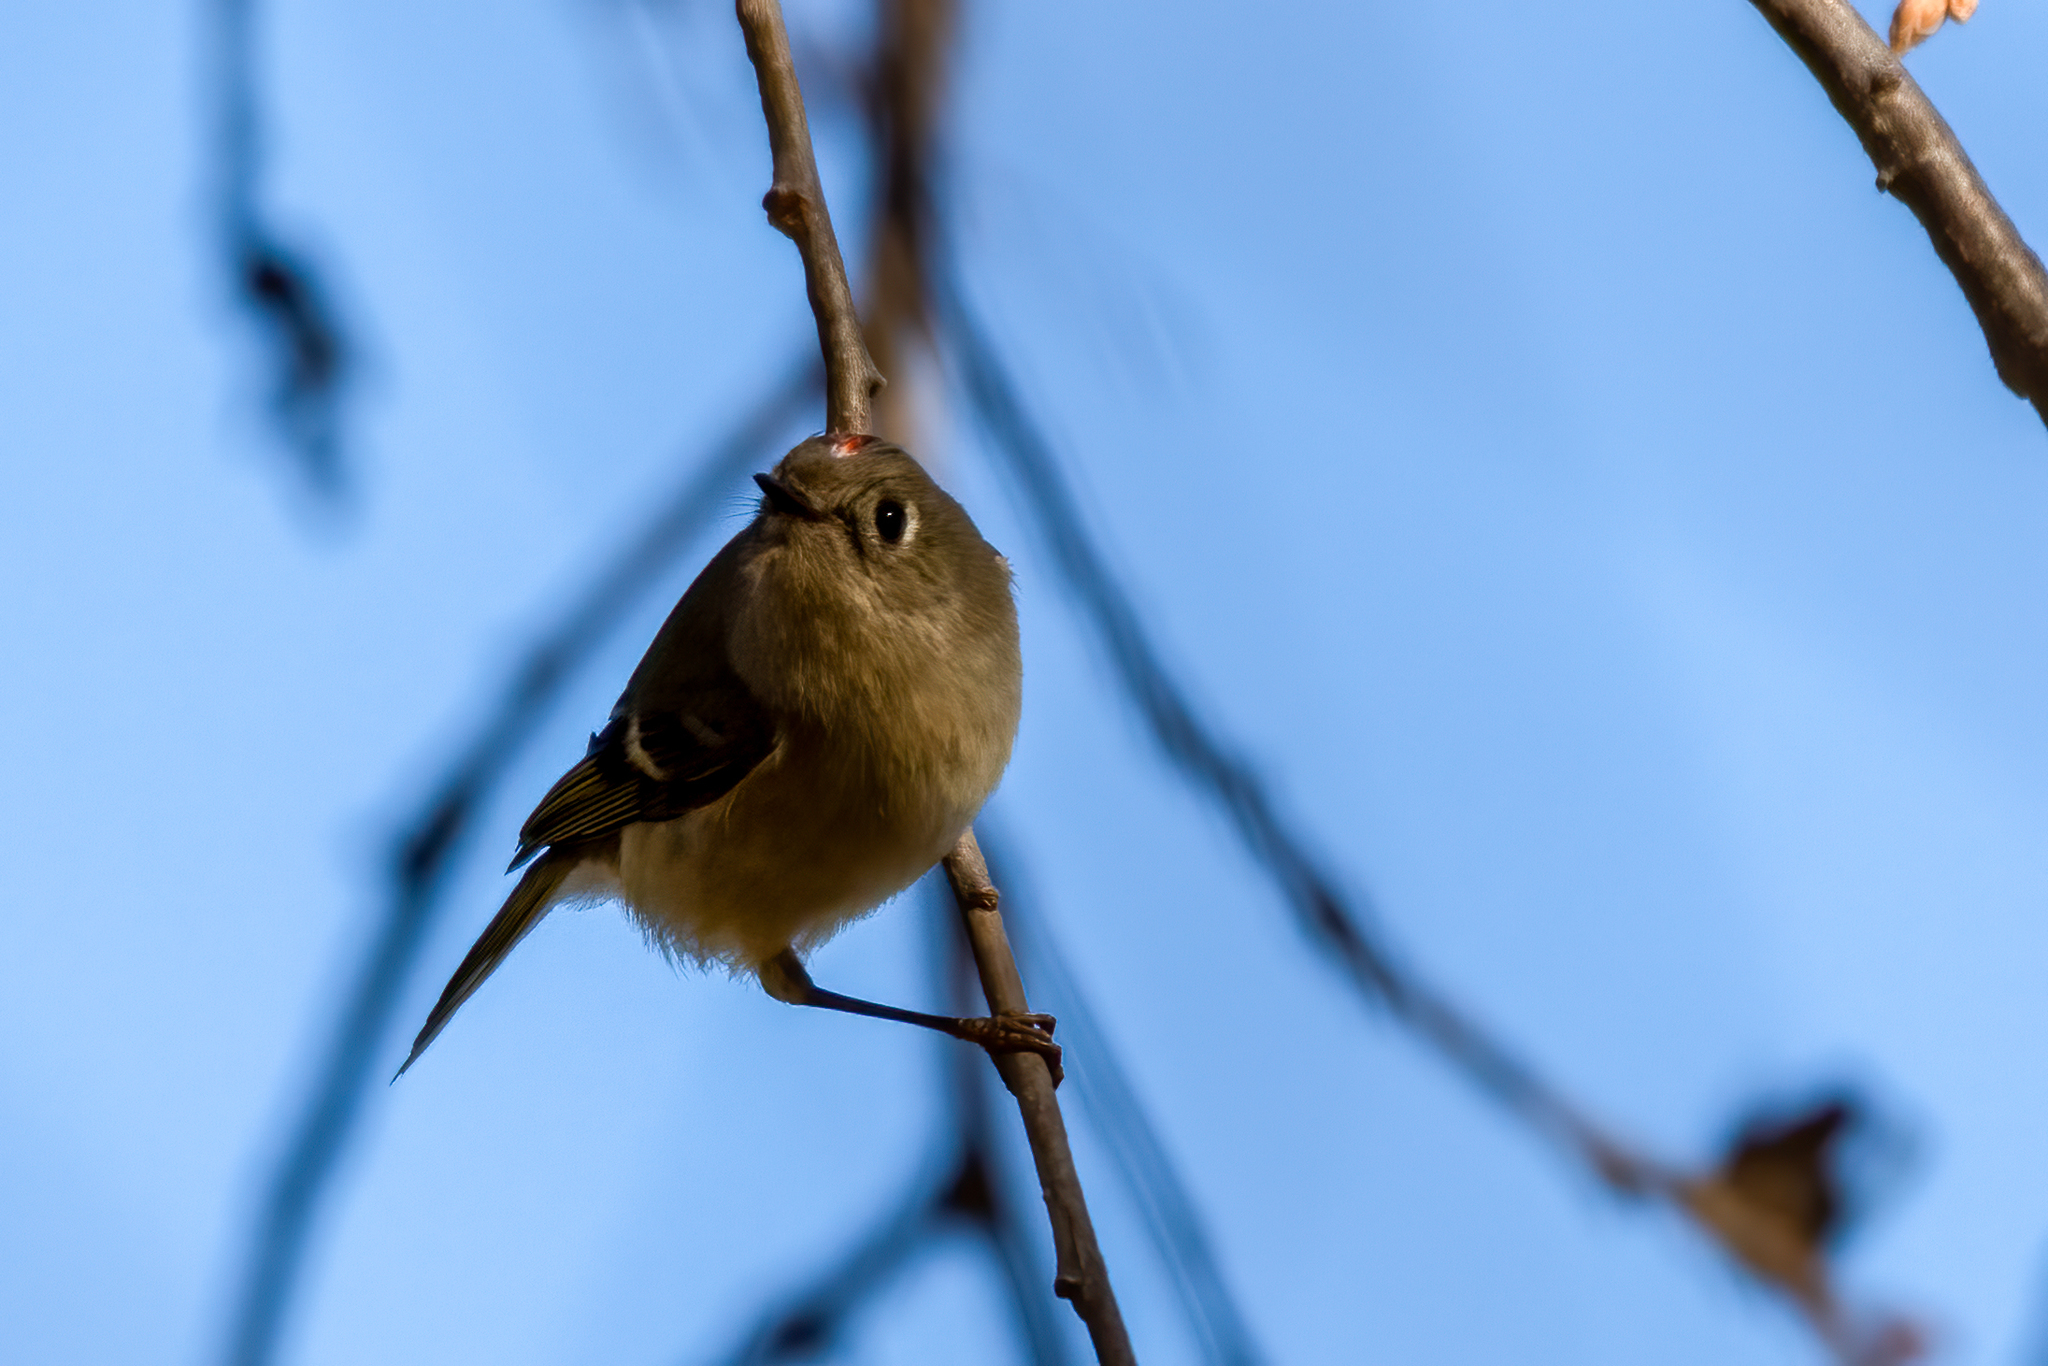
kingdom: Animalia
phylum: Chordata
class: Aves
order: Passeriformes
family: Regulidae
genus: Regulus
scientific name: Regulus calendula
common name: Ruby-crowned kinglet
